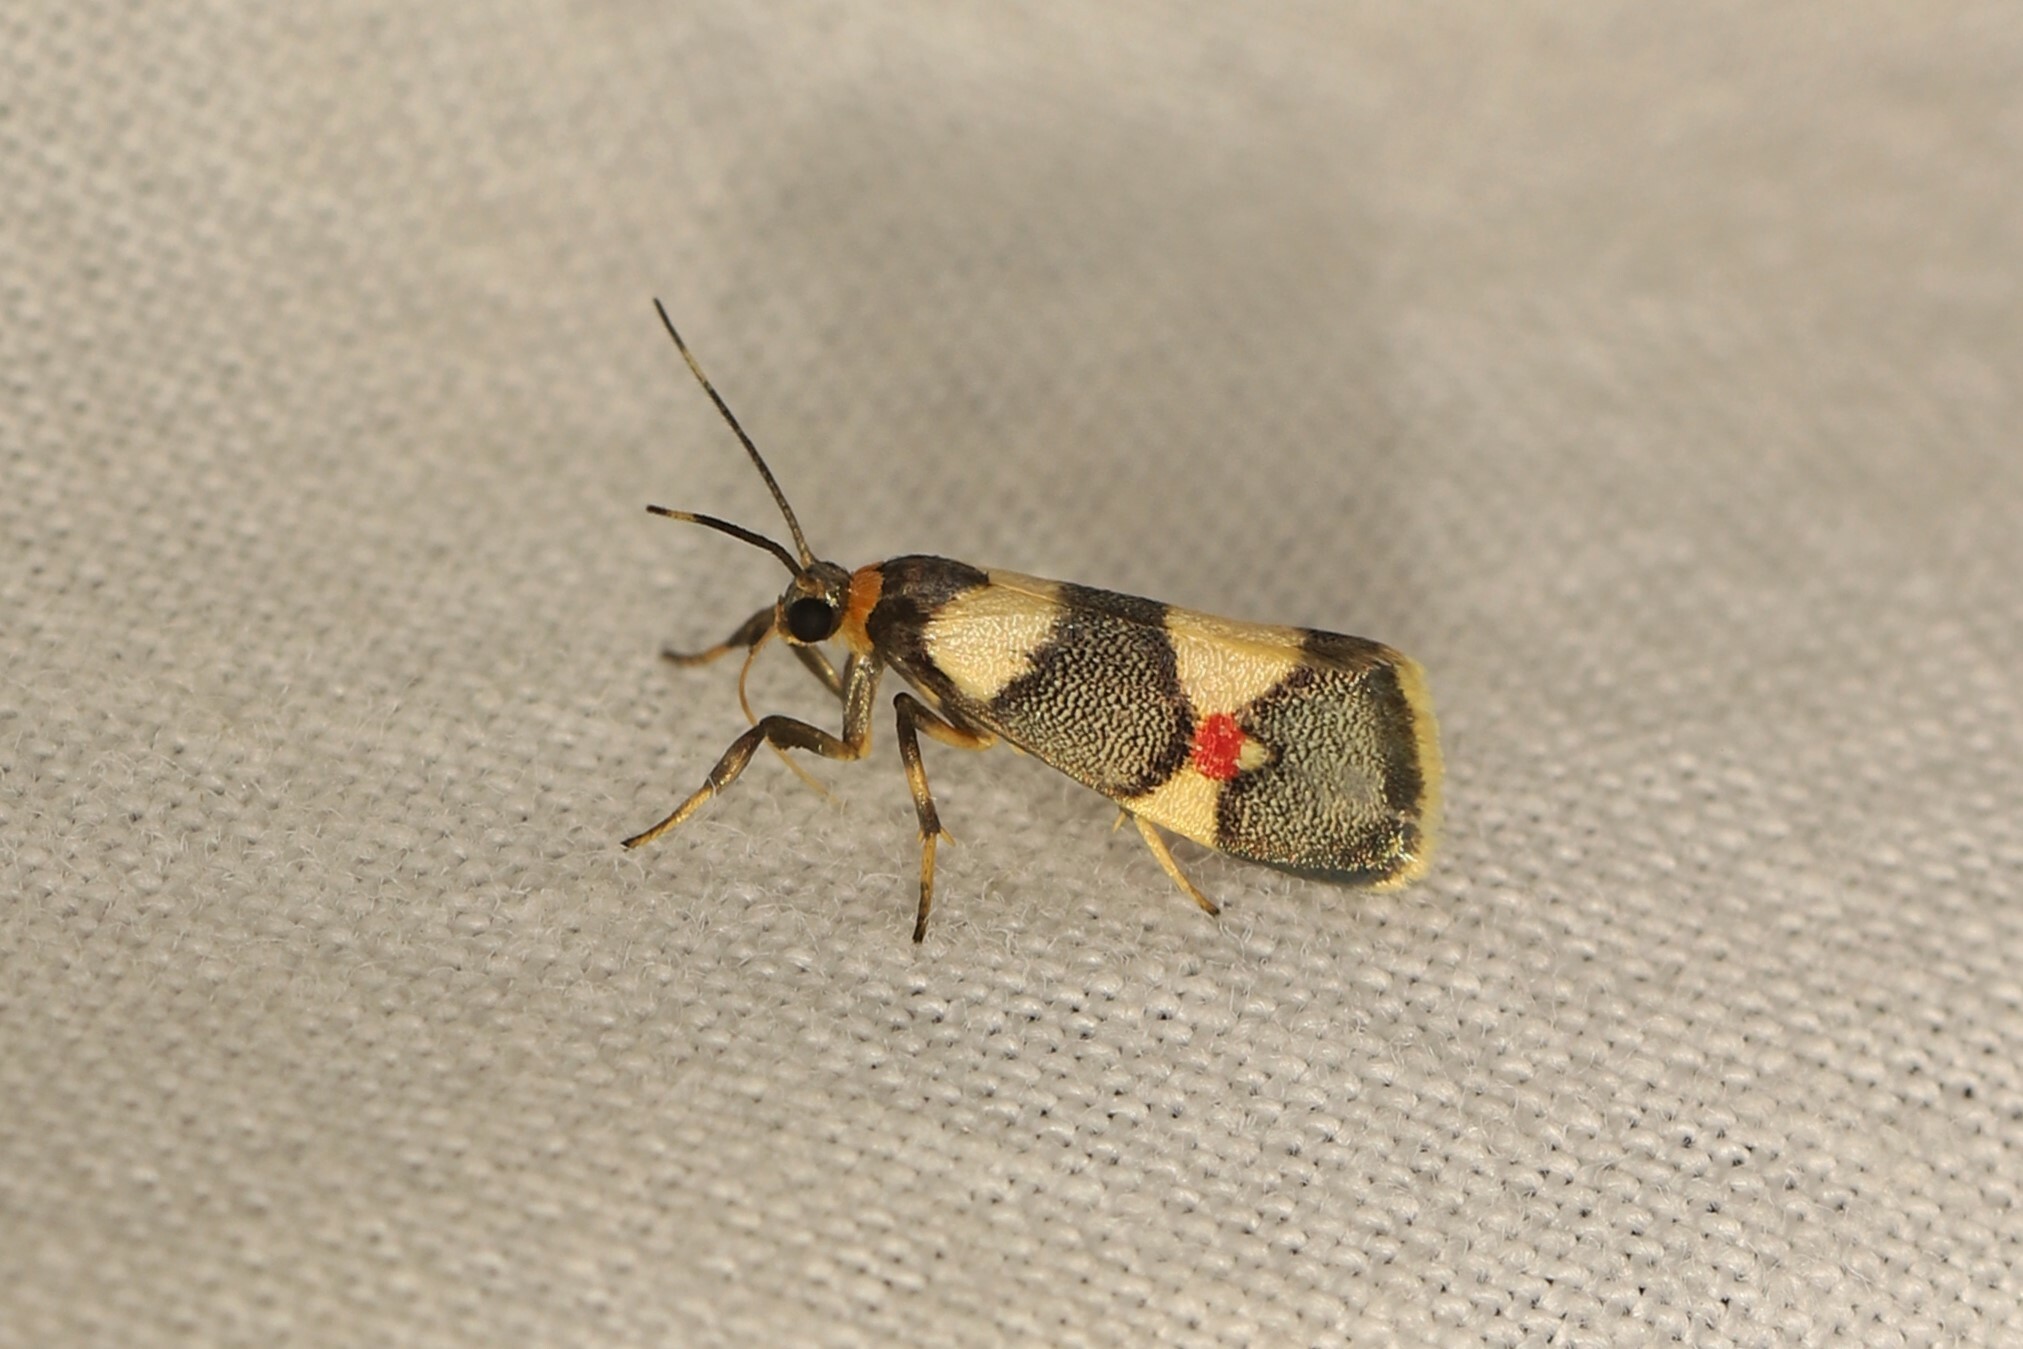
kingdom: Animalia
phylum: Arthropoda
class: Insecta
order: Lepidoptera
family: Erebidae
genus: Nodozana
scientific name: Nodozana rhodosticta
